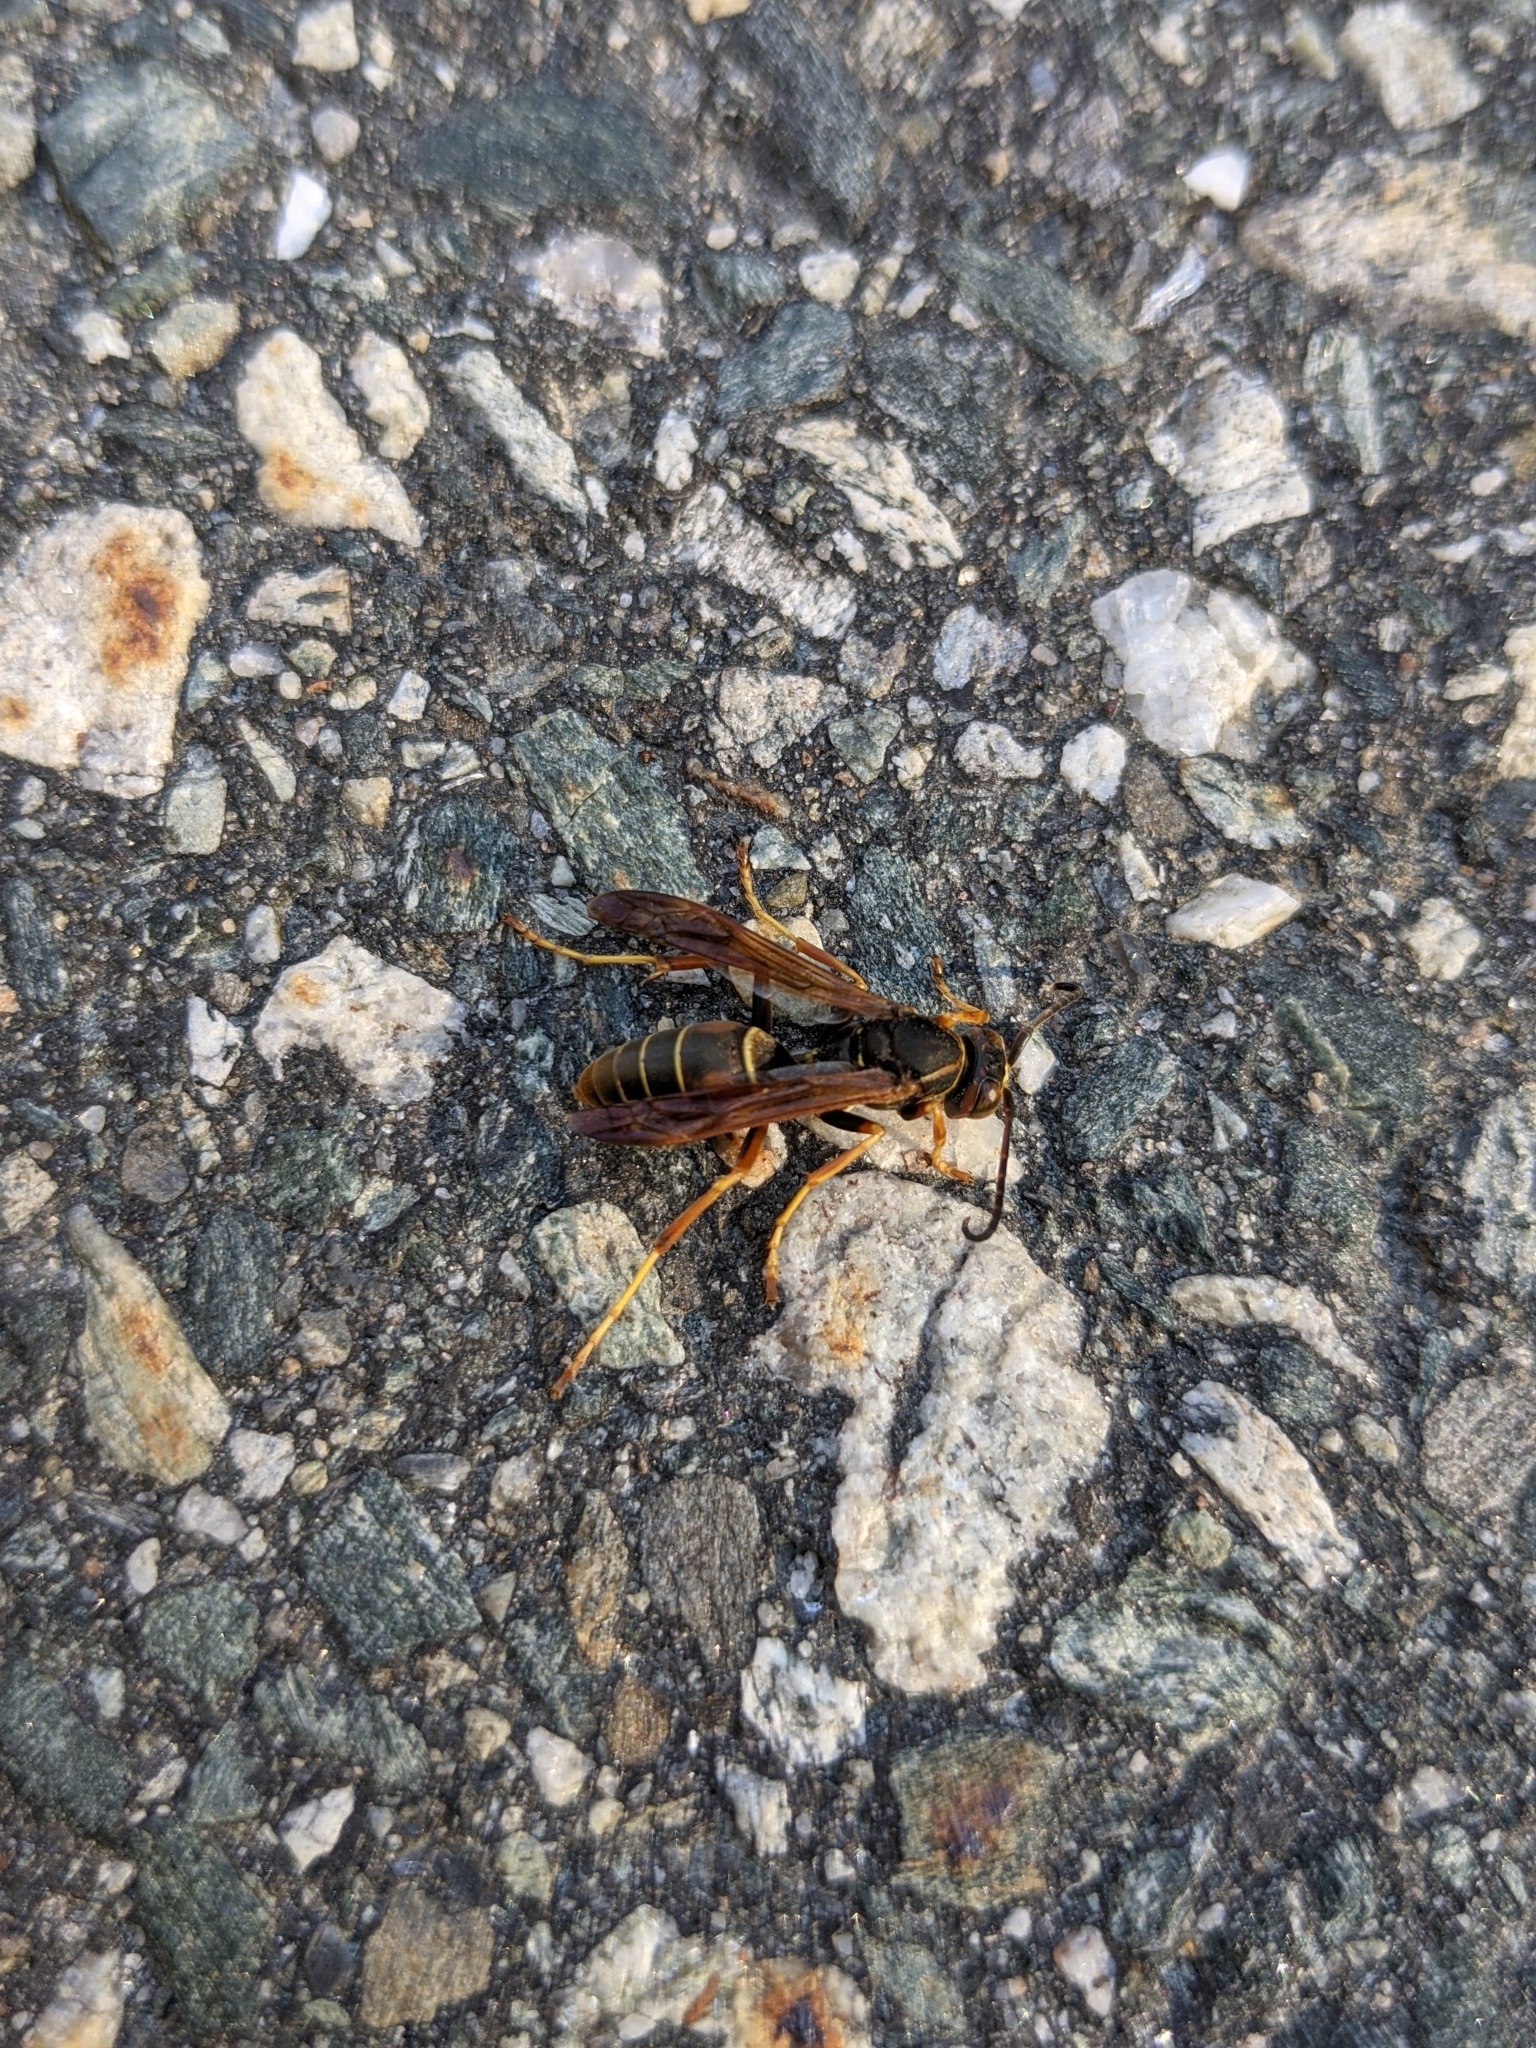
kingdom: Animalia
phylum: Arthropoda
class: Insecta
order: Hymenoptera
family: Eumenidae
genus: Polistes
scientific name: Polistes fuscatus
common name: Dark paper wasp
